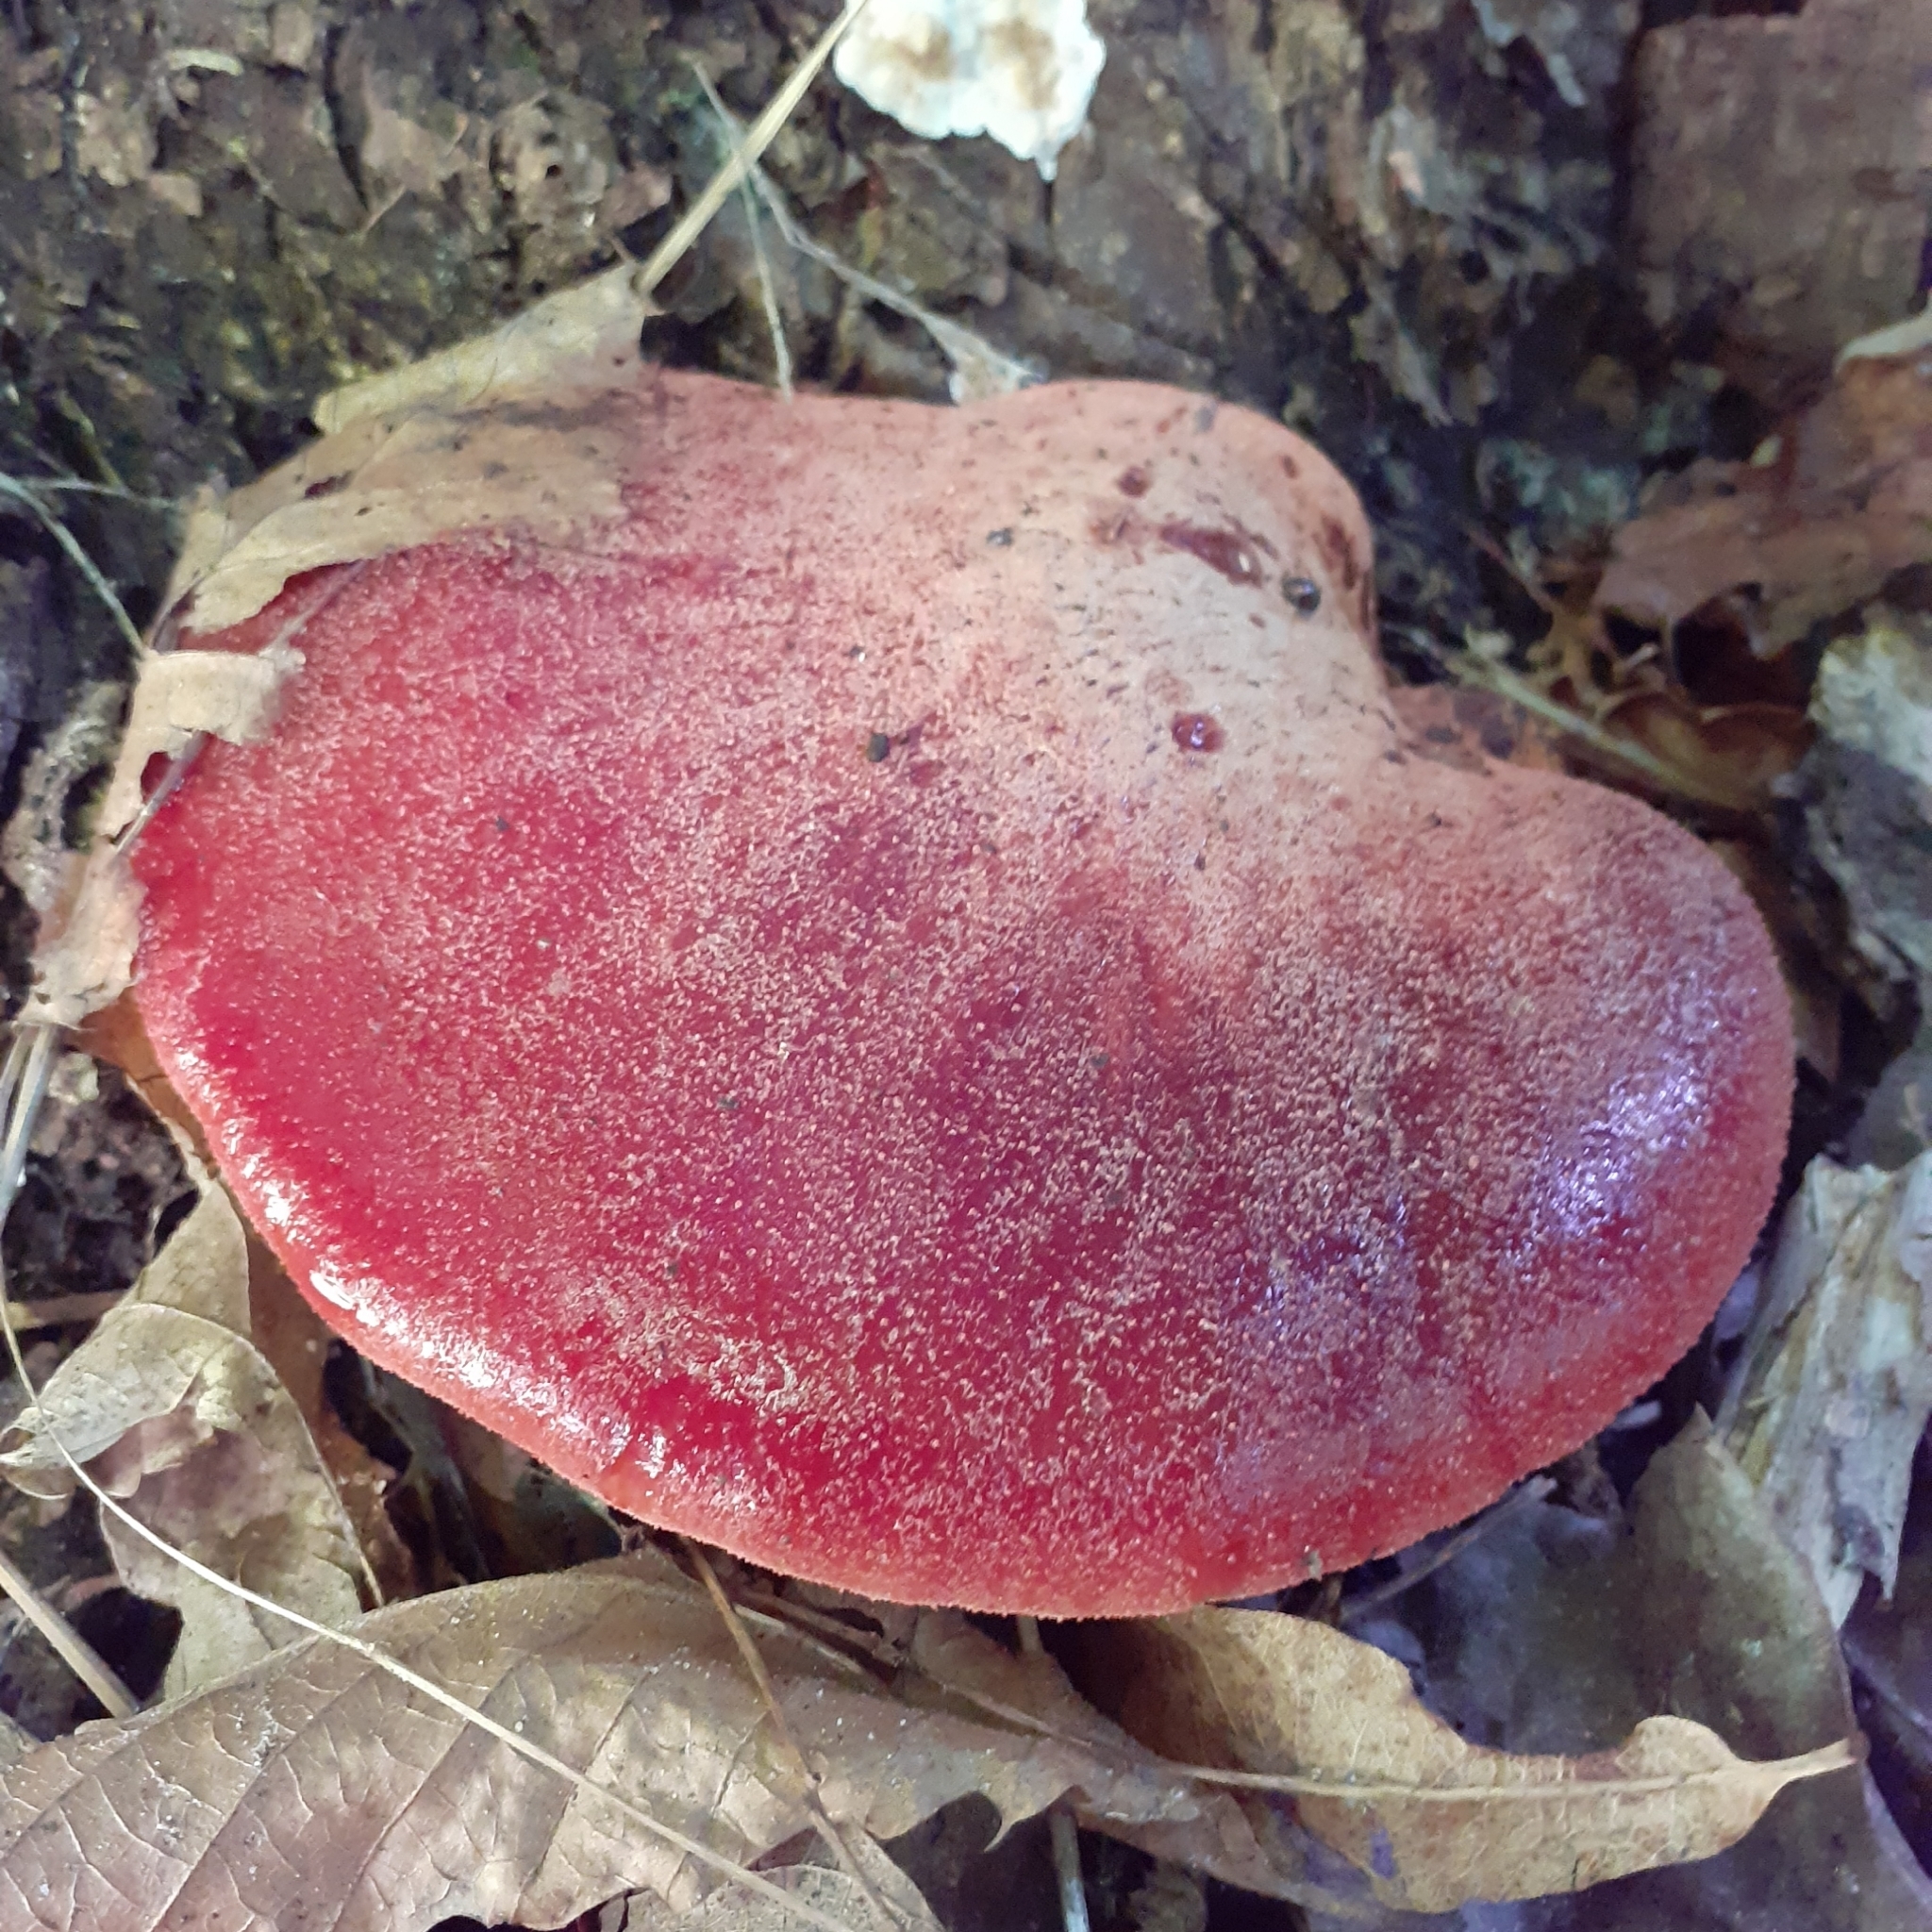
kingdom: Fungi
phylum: Basidiomycota
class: Agaricomycetes
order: Agaricales
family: Fistulinaceae
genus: Fistulina
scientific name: Fistulina hepatica
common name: Beef-steak fungus
